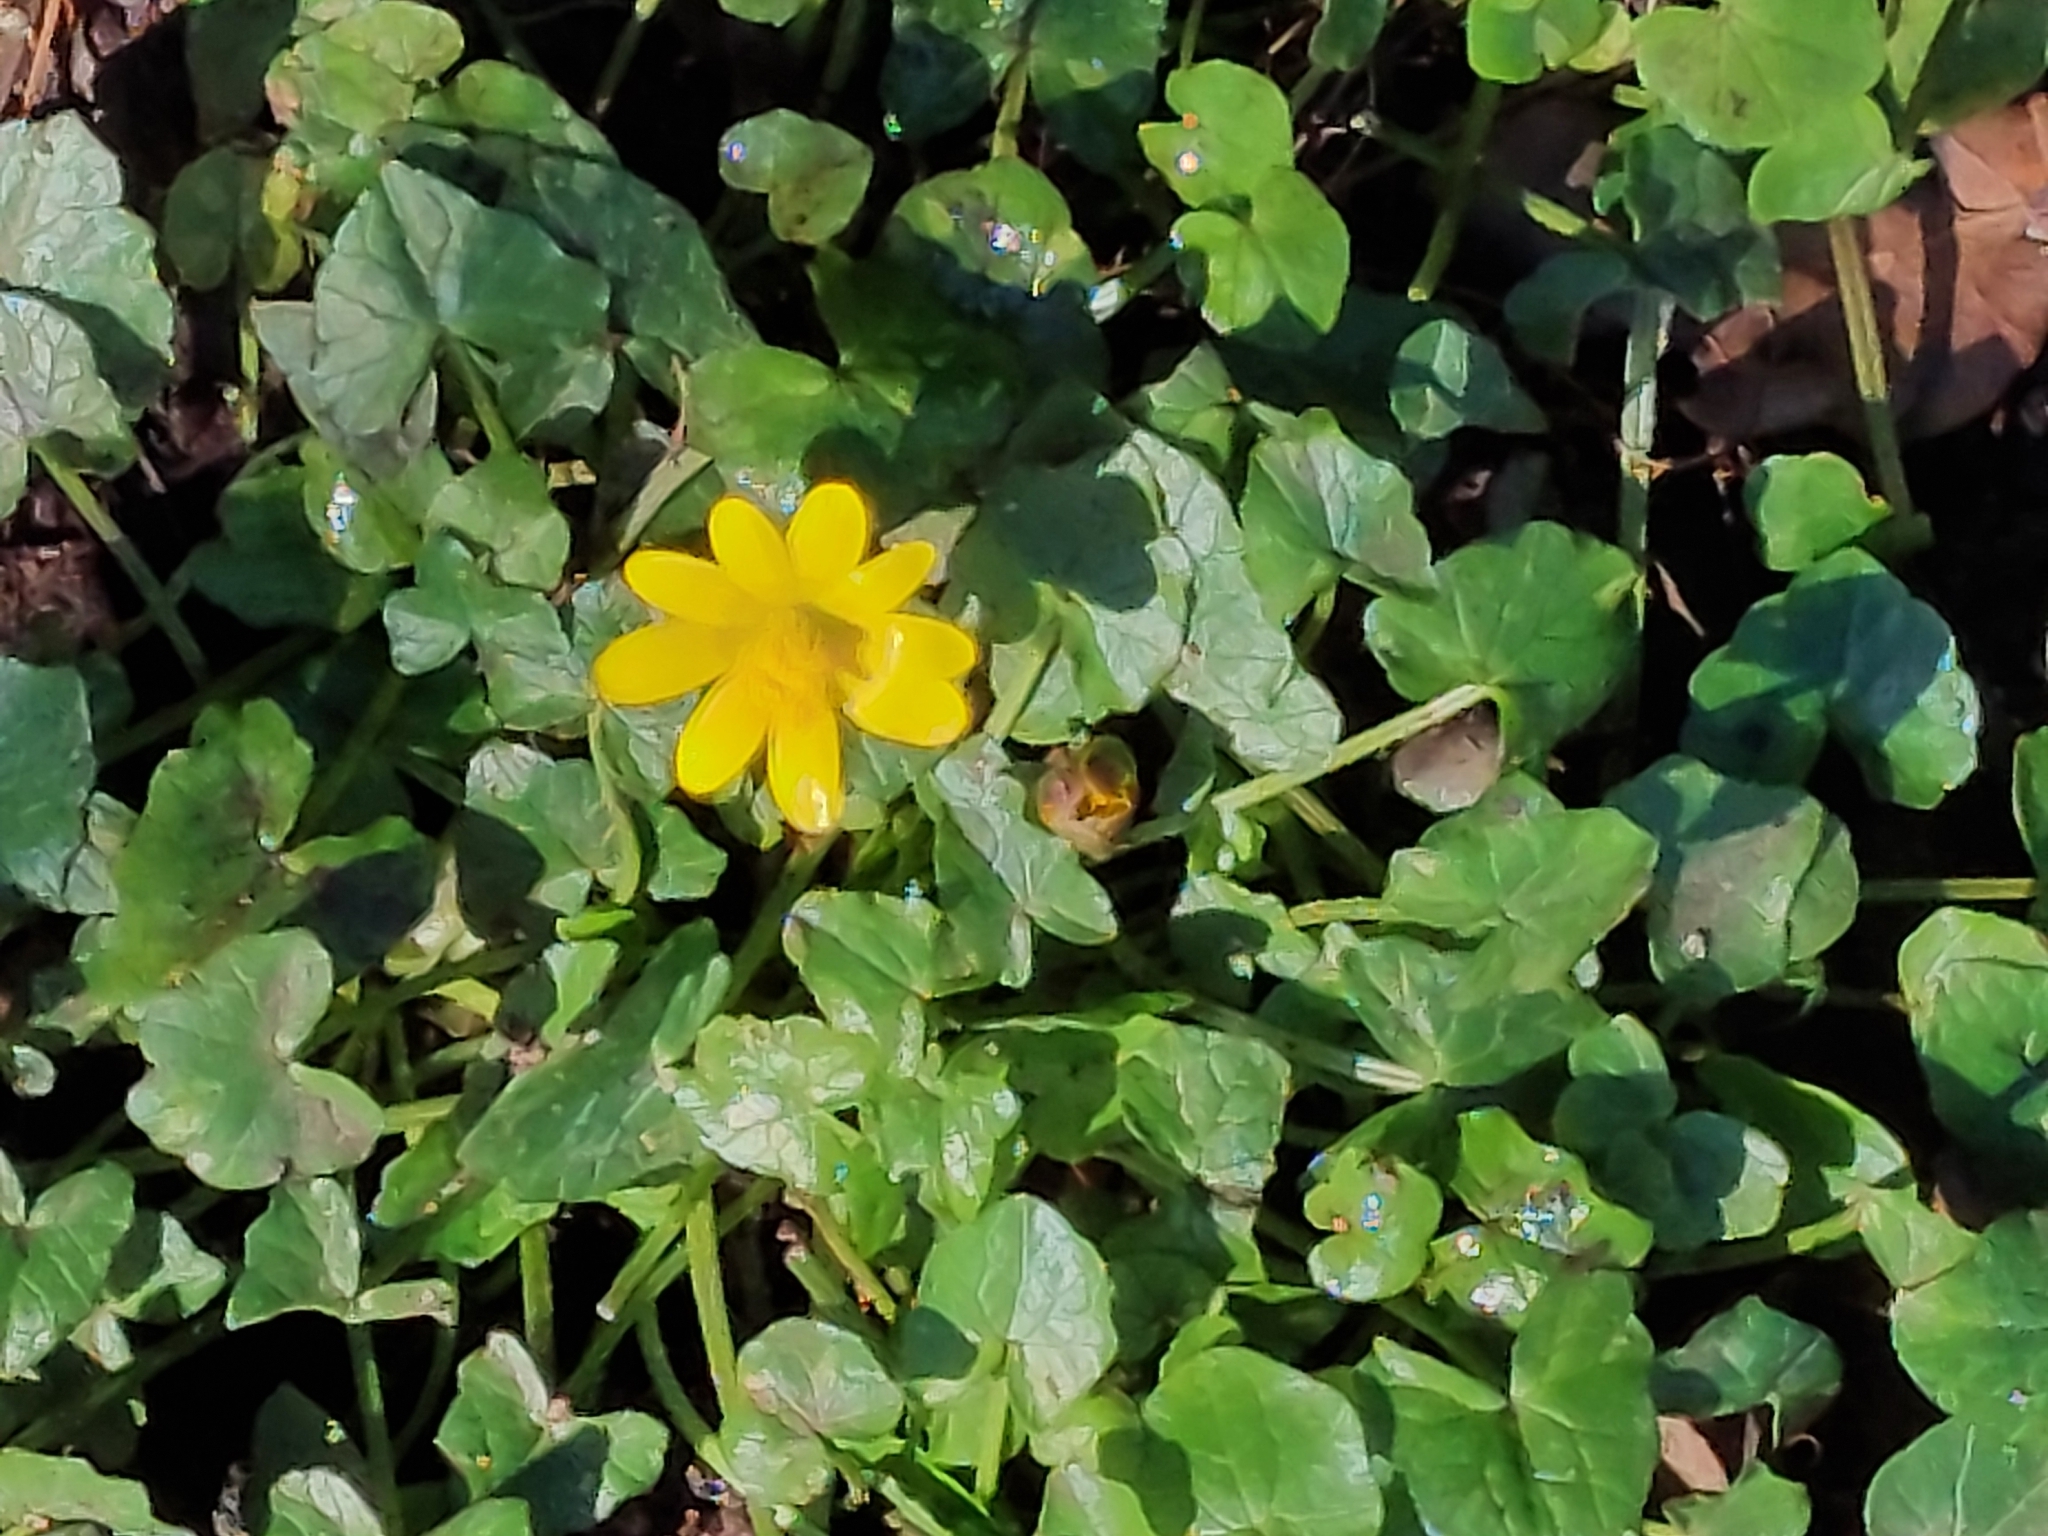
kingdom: Plantae
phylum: Tracheophyta
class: Magnoliopsida
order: Ranunculales
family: Ranunculaceae
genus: Ficaria
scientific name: Ficaria verna
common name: Lesser celandine
